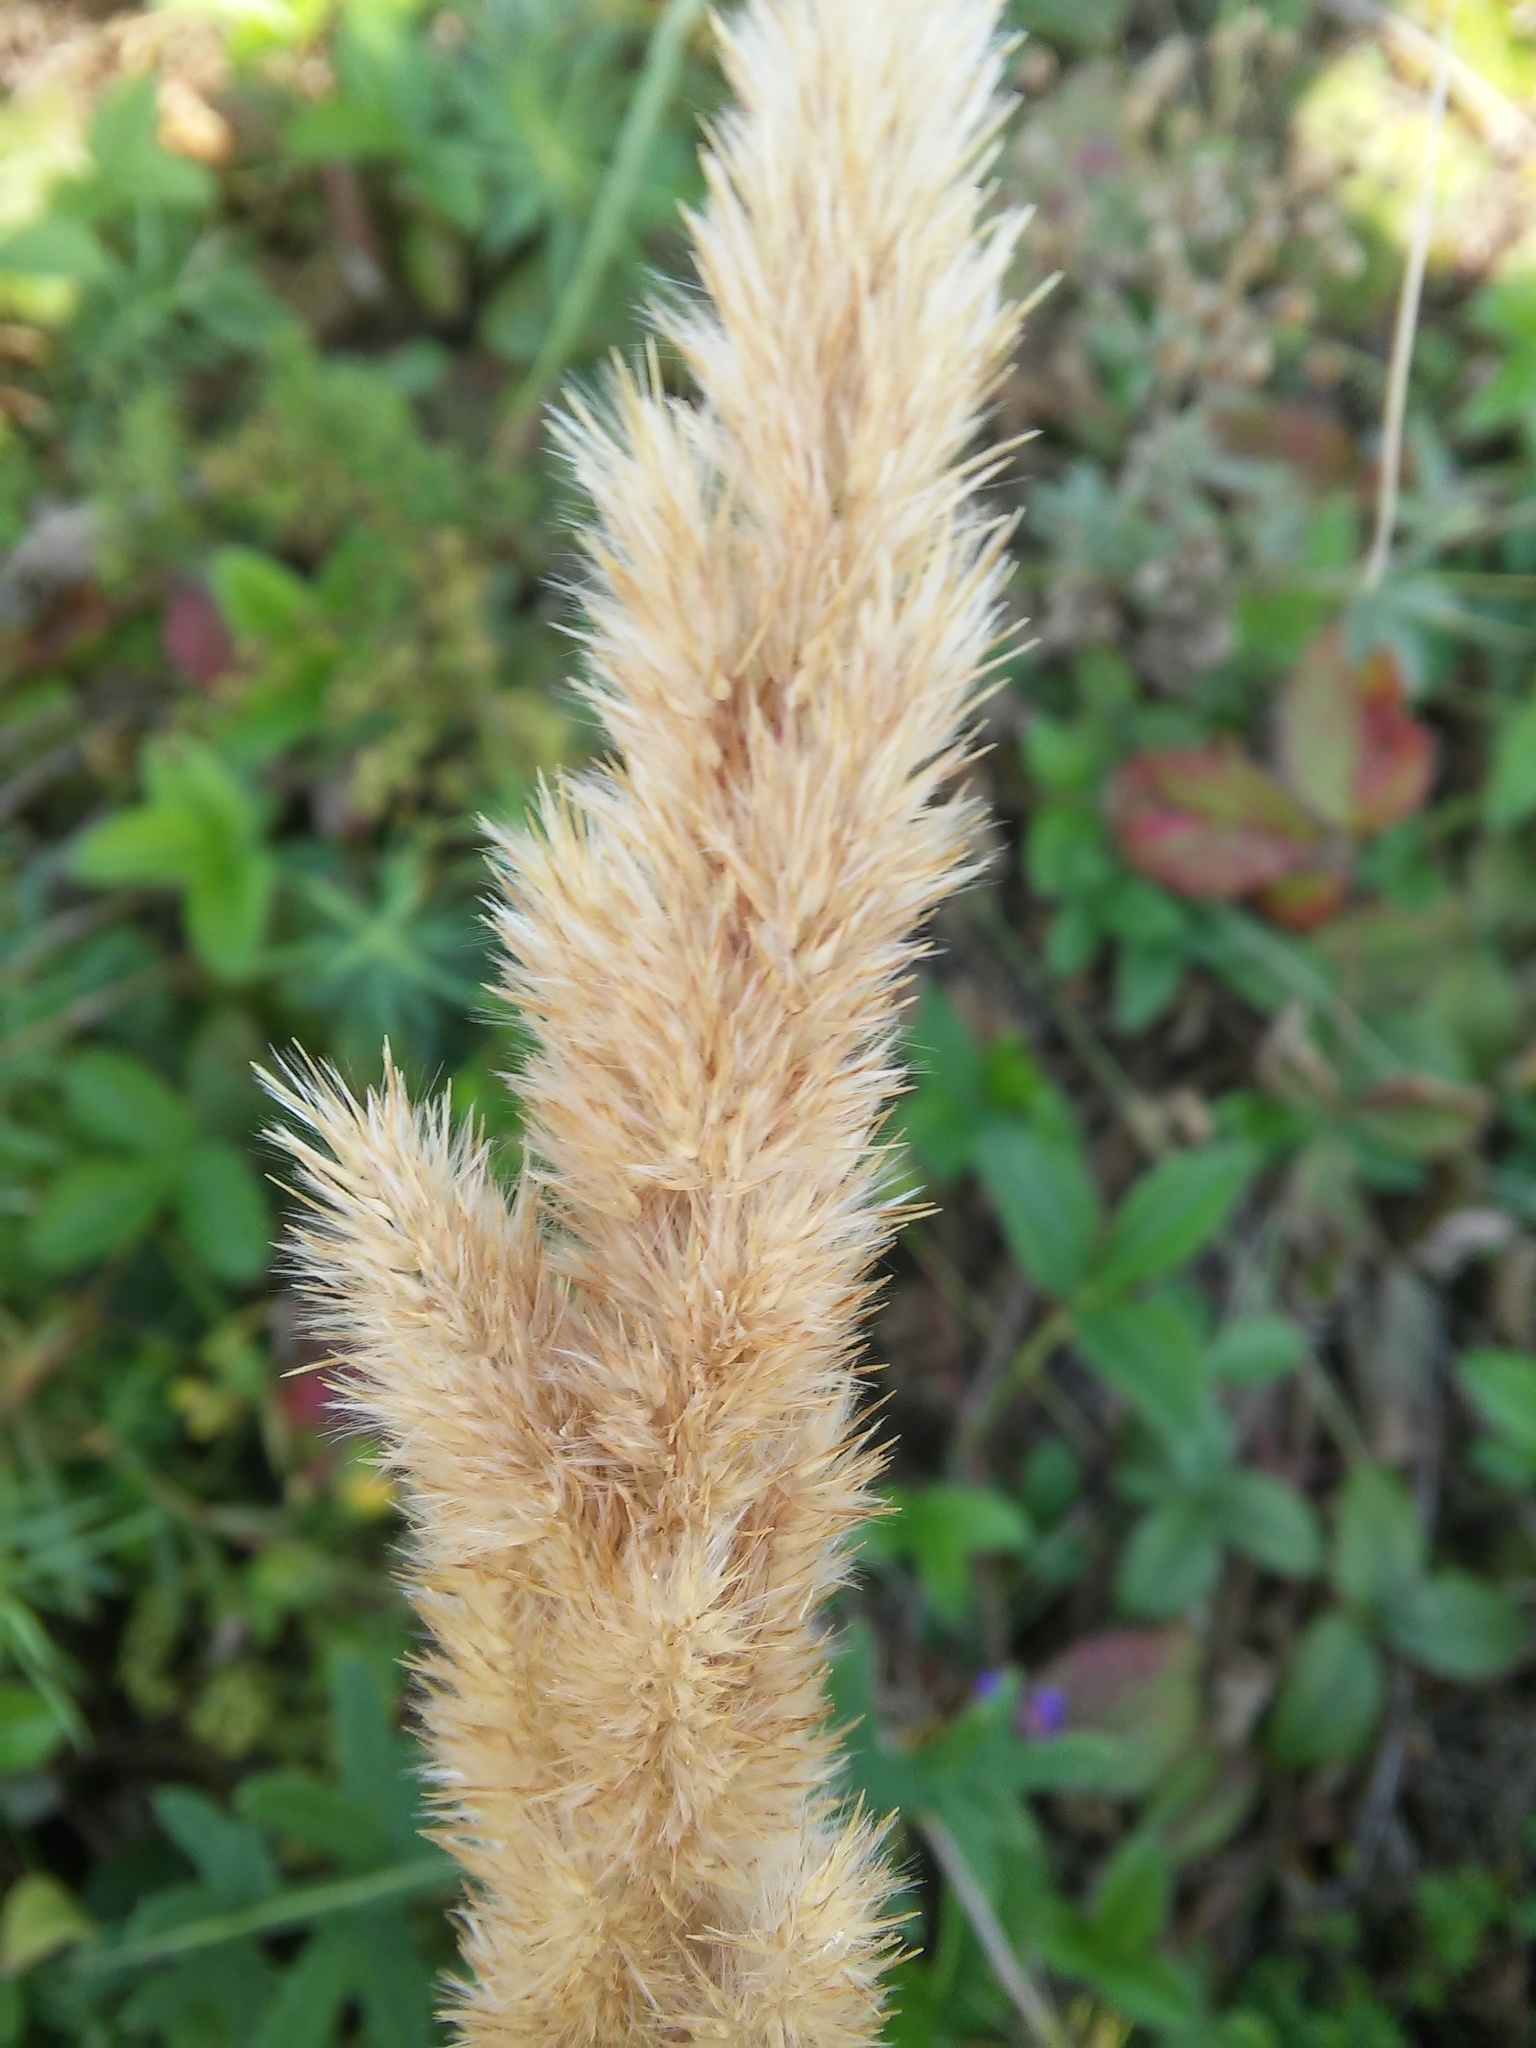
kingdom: Plantae
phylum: Tracheophyta
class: Liliopsida
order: Poales
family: Poaceae
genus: Calamagrostis
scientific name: Calamagrostis epigejos
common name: Wood small-reed
